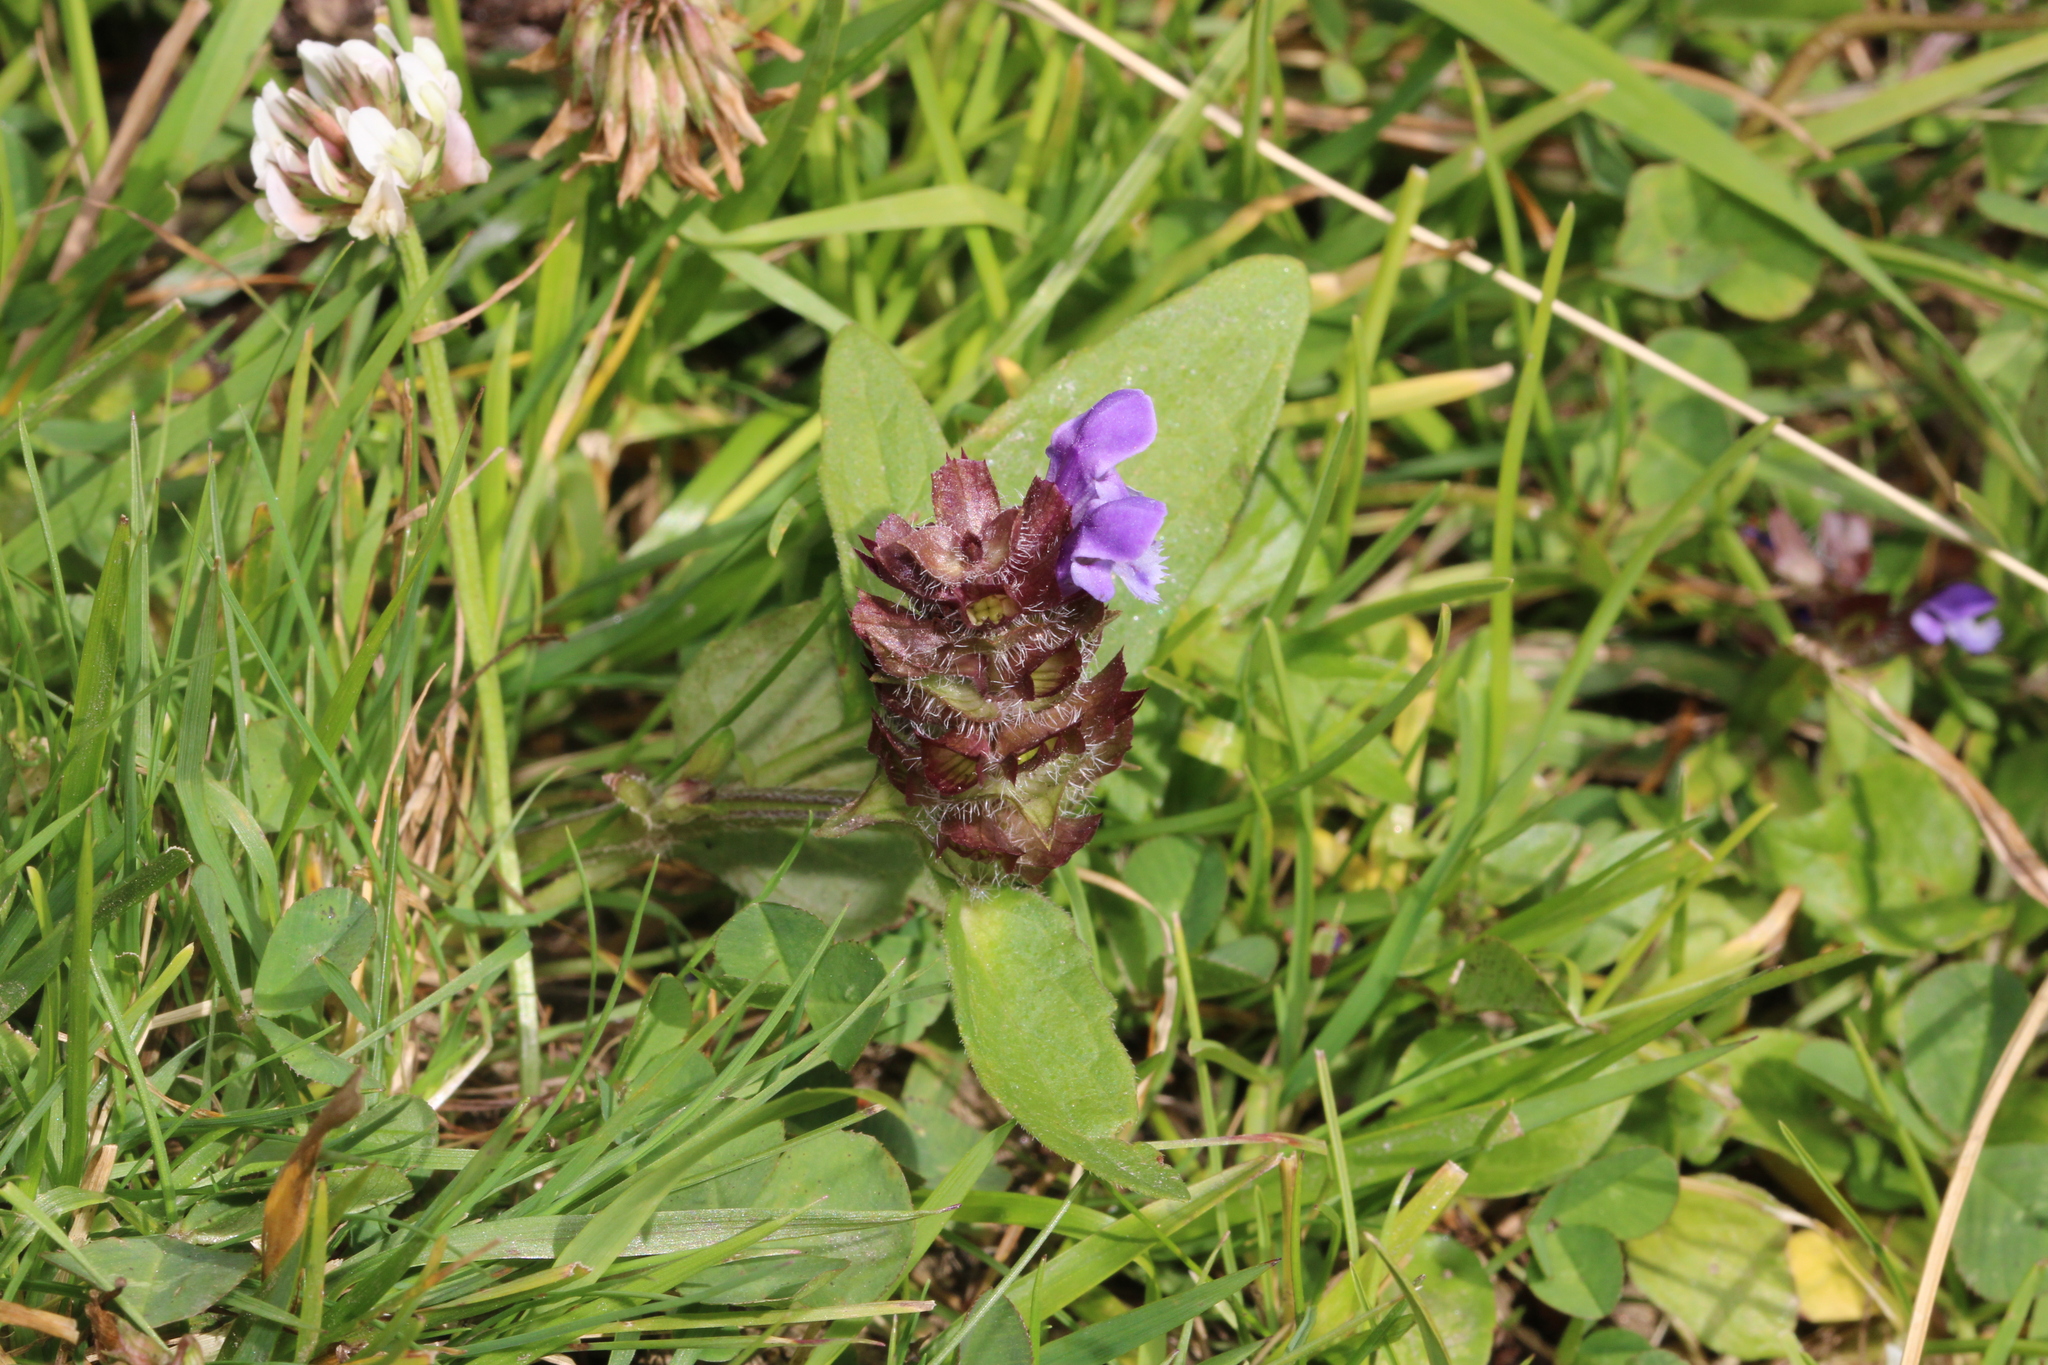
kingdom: Plantae
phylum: Tracheophyta
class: Magnoliopsida
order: Lamiales
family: Lamiaceae
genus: Prunella
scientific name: Prunella vulgaris
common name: Heal-all
